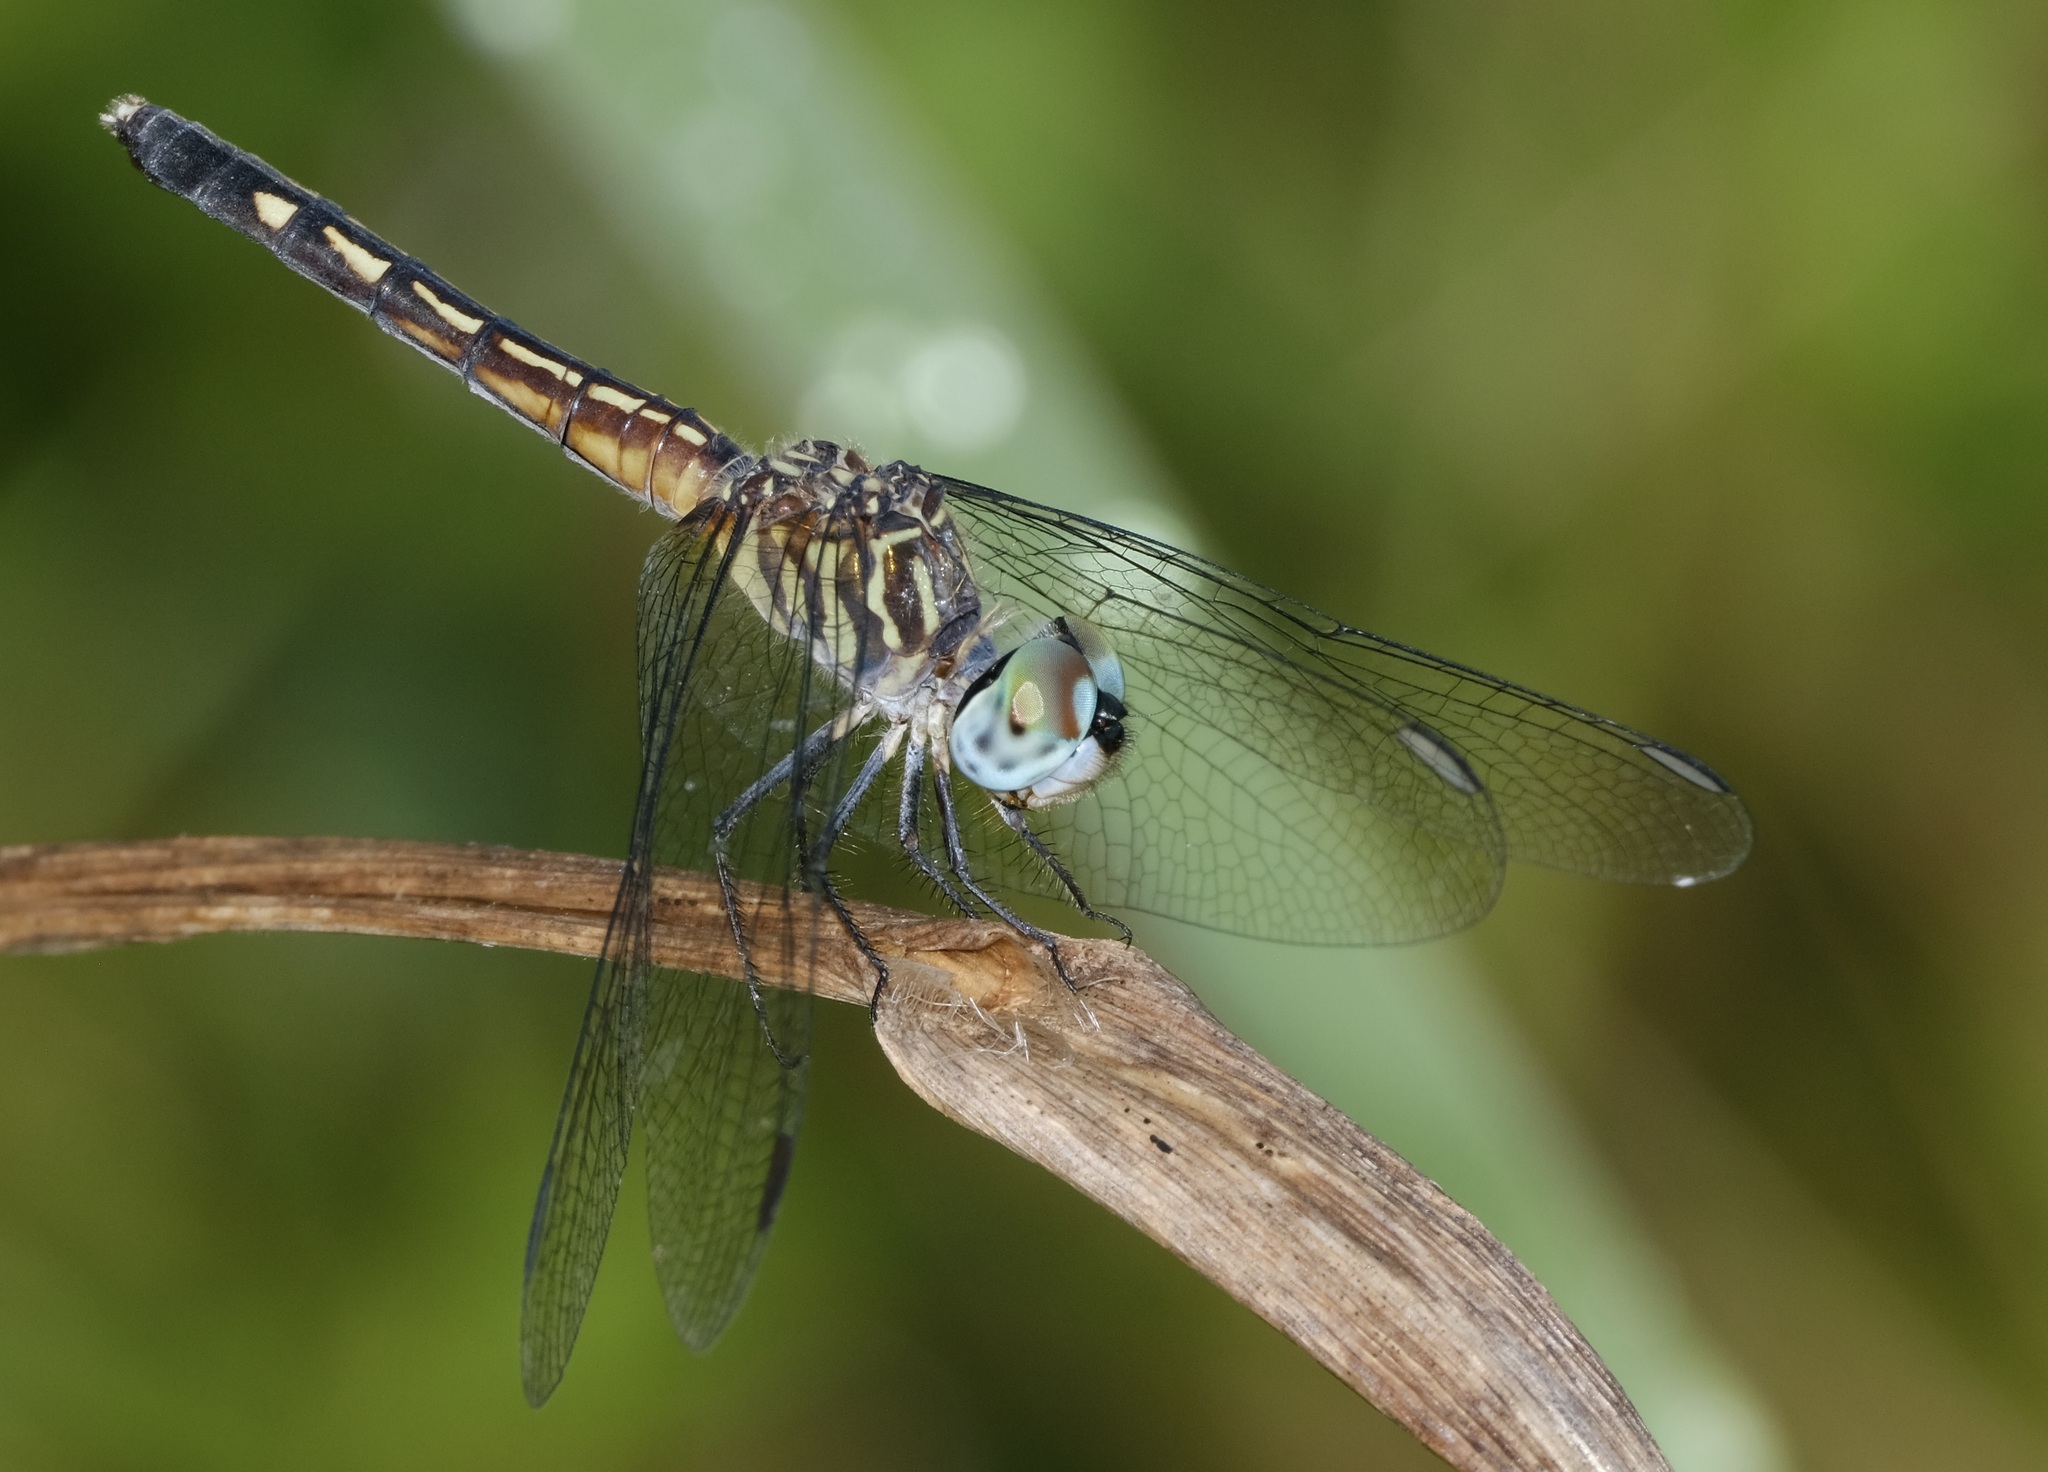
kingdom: Animalia
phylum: Arthropoda
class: Insecta
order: Odonata
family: Libellulidae
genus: Pachydiplax
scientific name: Pachydiplax longipennis
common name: Blue dasher
